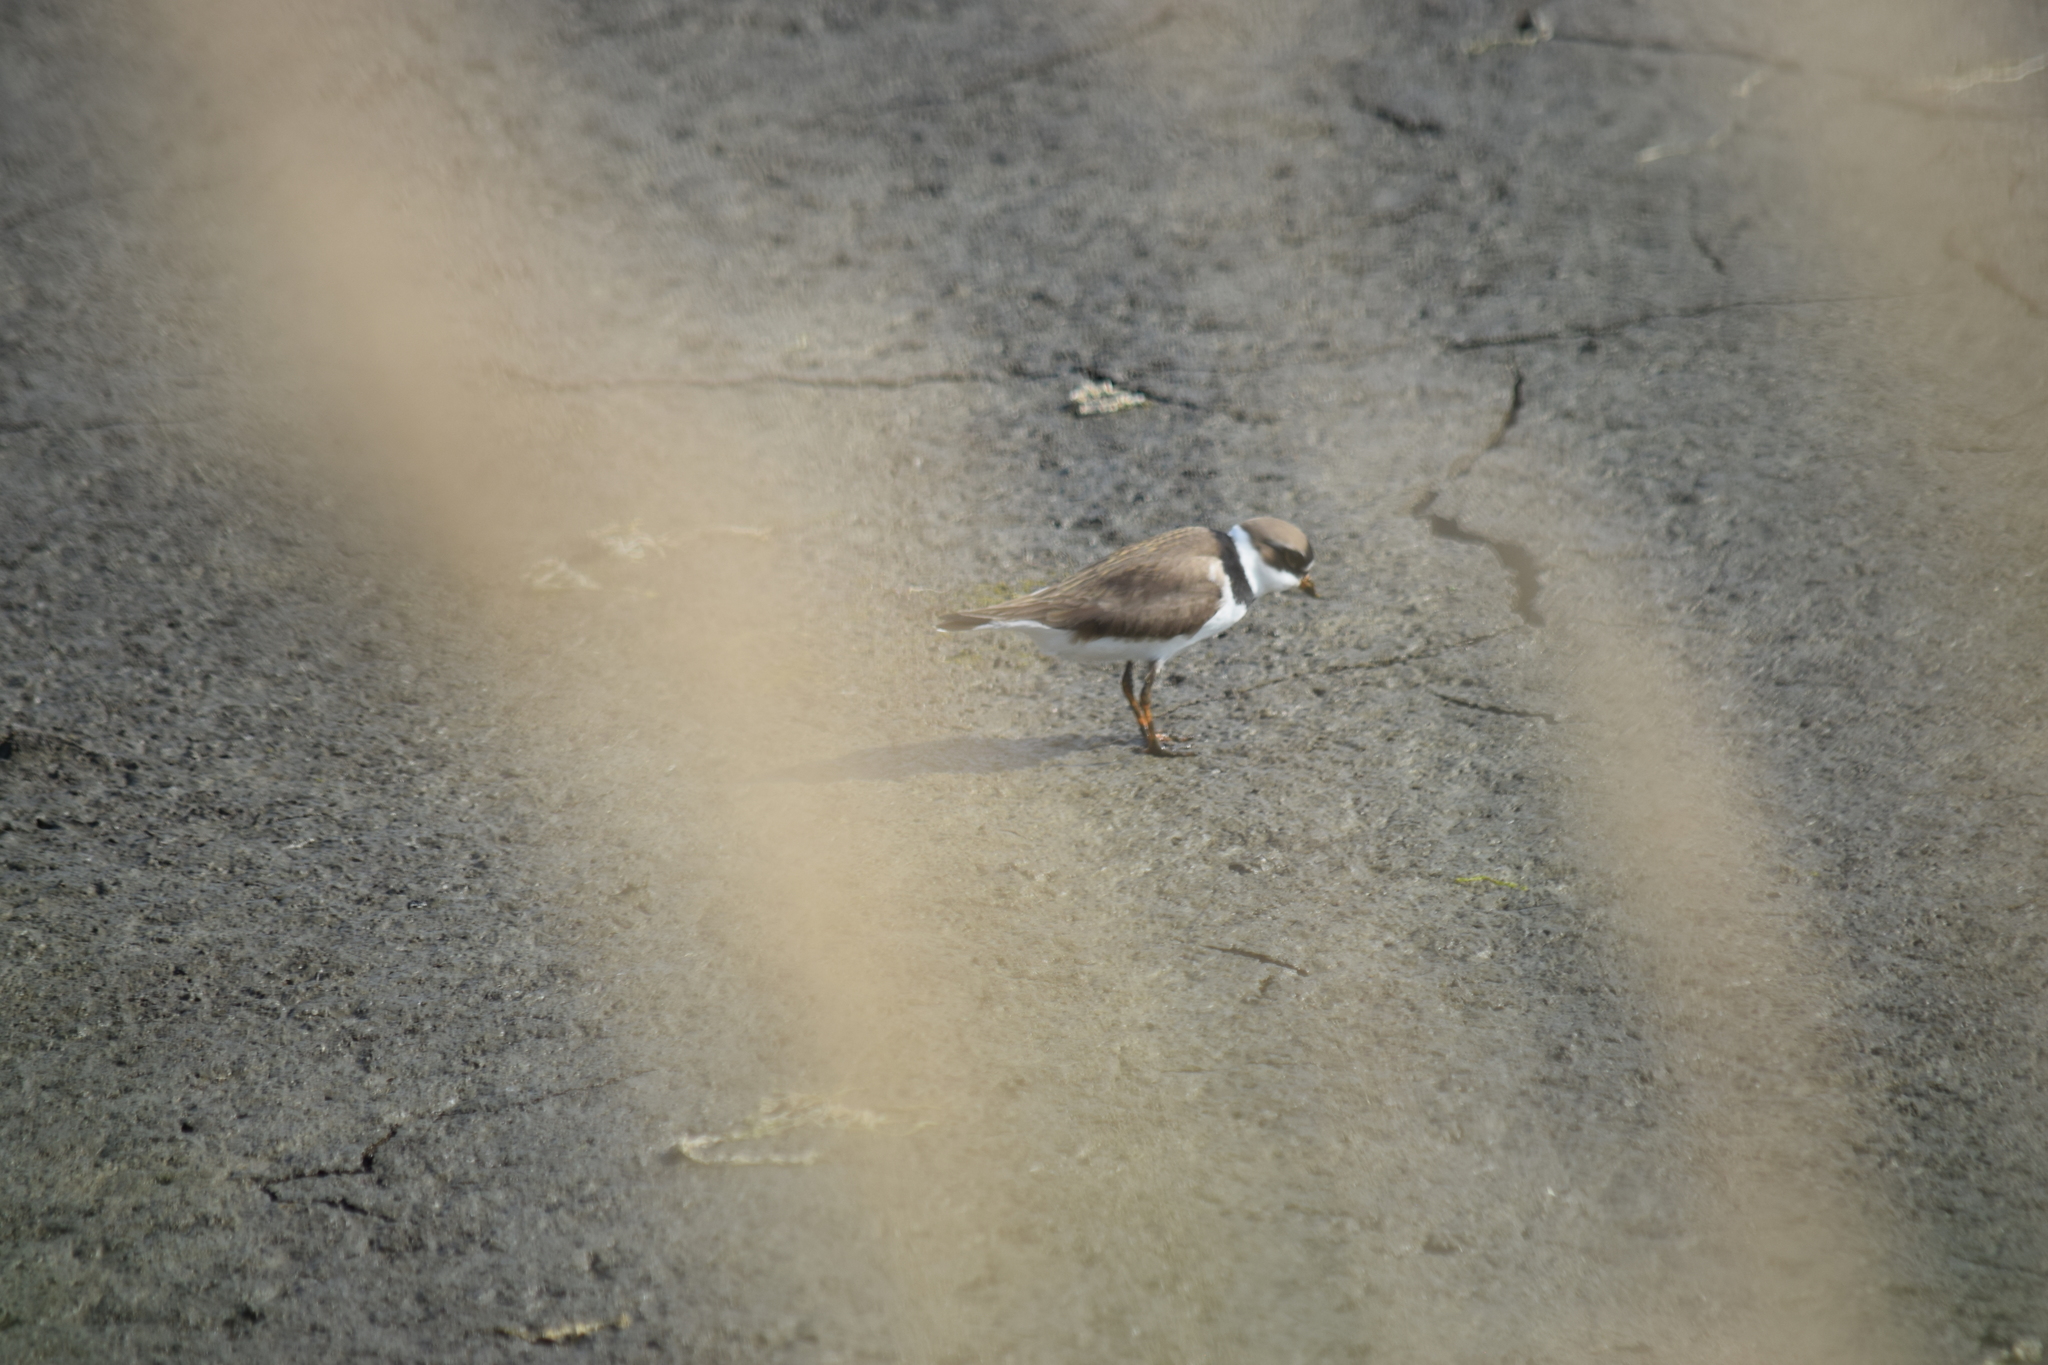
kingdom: Animalia
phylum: Chordata
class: Aves
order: Charadriiformes
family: Charadriidae
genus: Charadrius
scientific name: Charadrius semipalmatus
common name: Semipalmated plover
